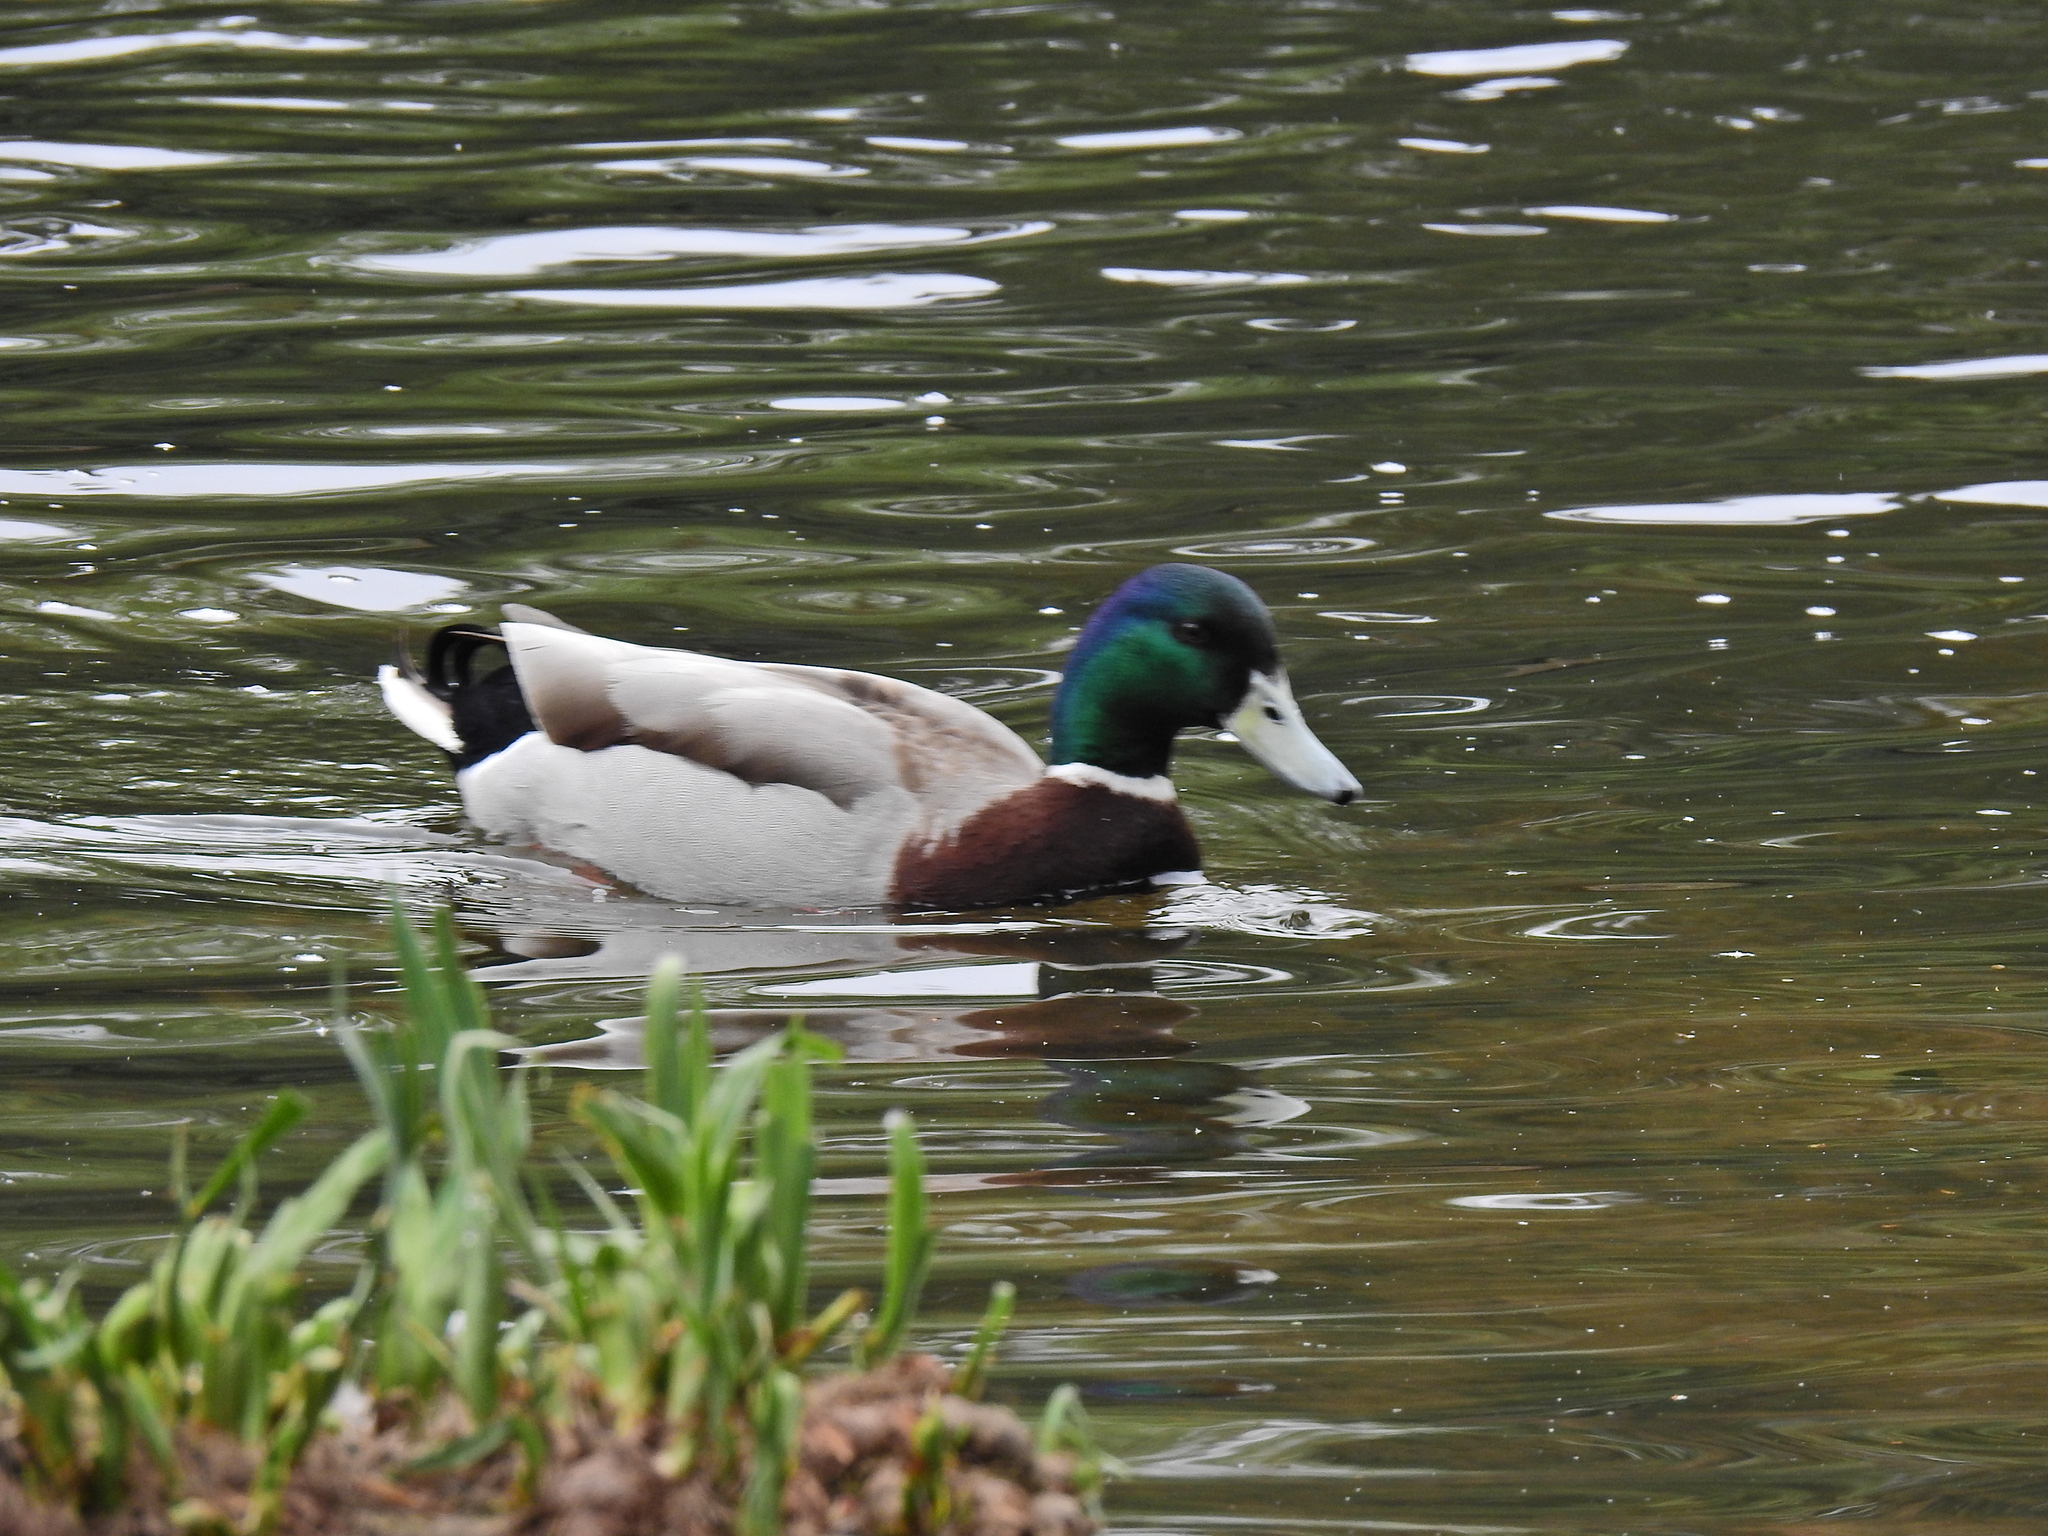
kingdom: Animalia
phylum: Chordata
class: Aves
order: Anseriformes
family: Anatidae
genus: Anas
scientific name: Anas platyrhynchos
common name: Mallard
